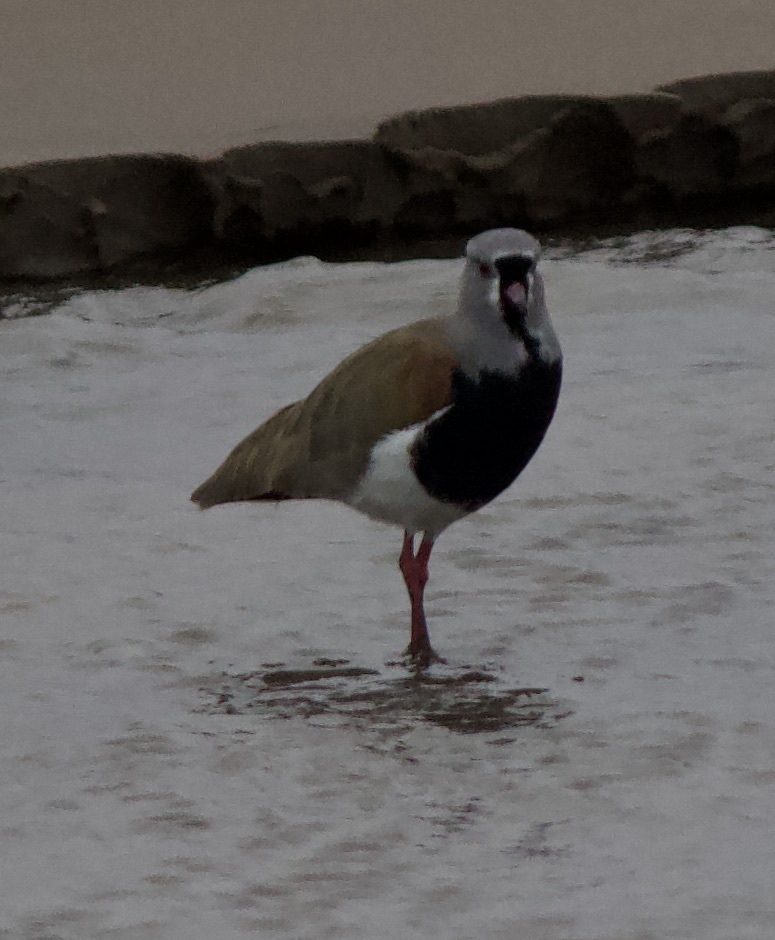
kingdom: Animalia
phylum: Chordata
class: Aves
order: Charadriiformes
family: Charadriidae
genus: Vanellus
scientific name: Vanellus chilensis
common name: Southern lapwing
